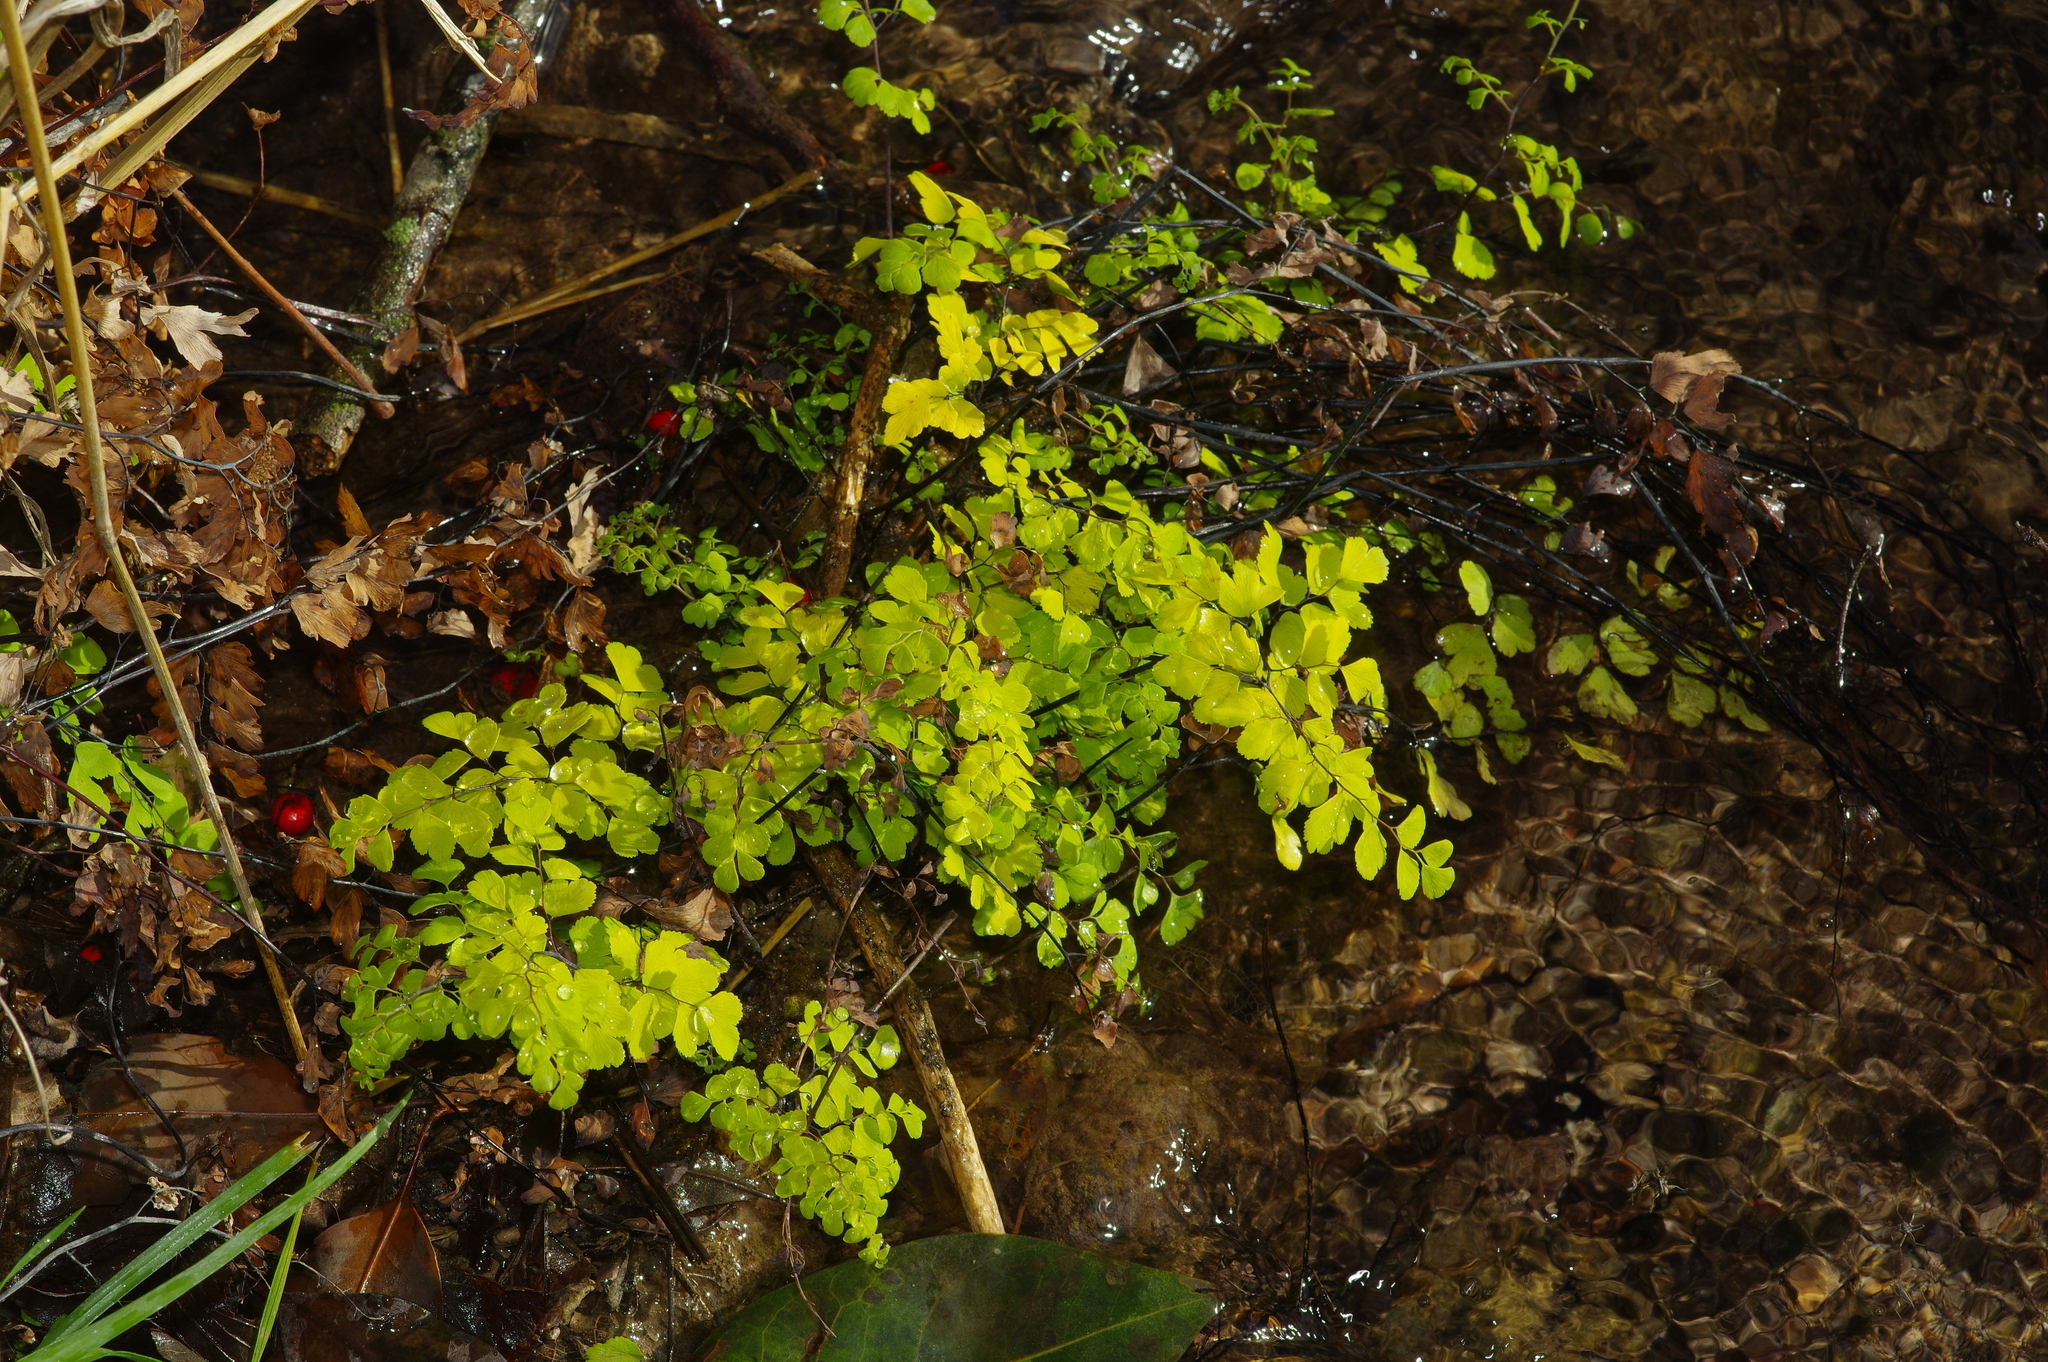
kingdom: Plantae
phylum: Tracheophyta
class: Polypodiopsida
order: Polypodiales
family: Pteridaceae
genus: Adiantum
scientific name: Adiantum capillus-veneris
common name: Maidenhair fern
